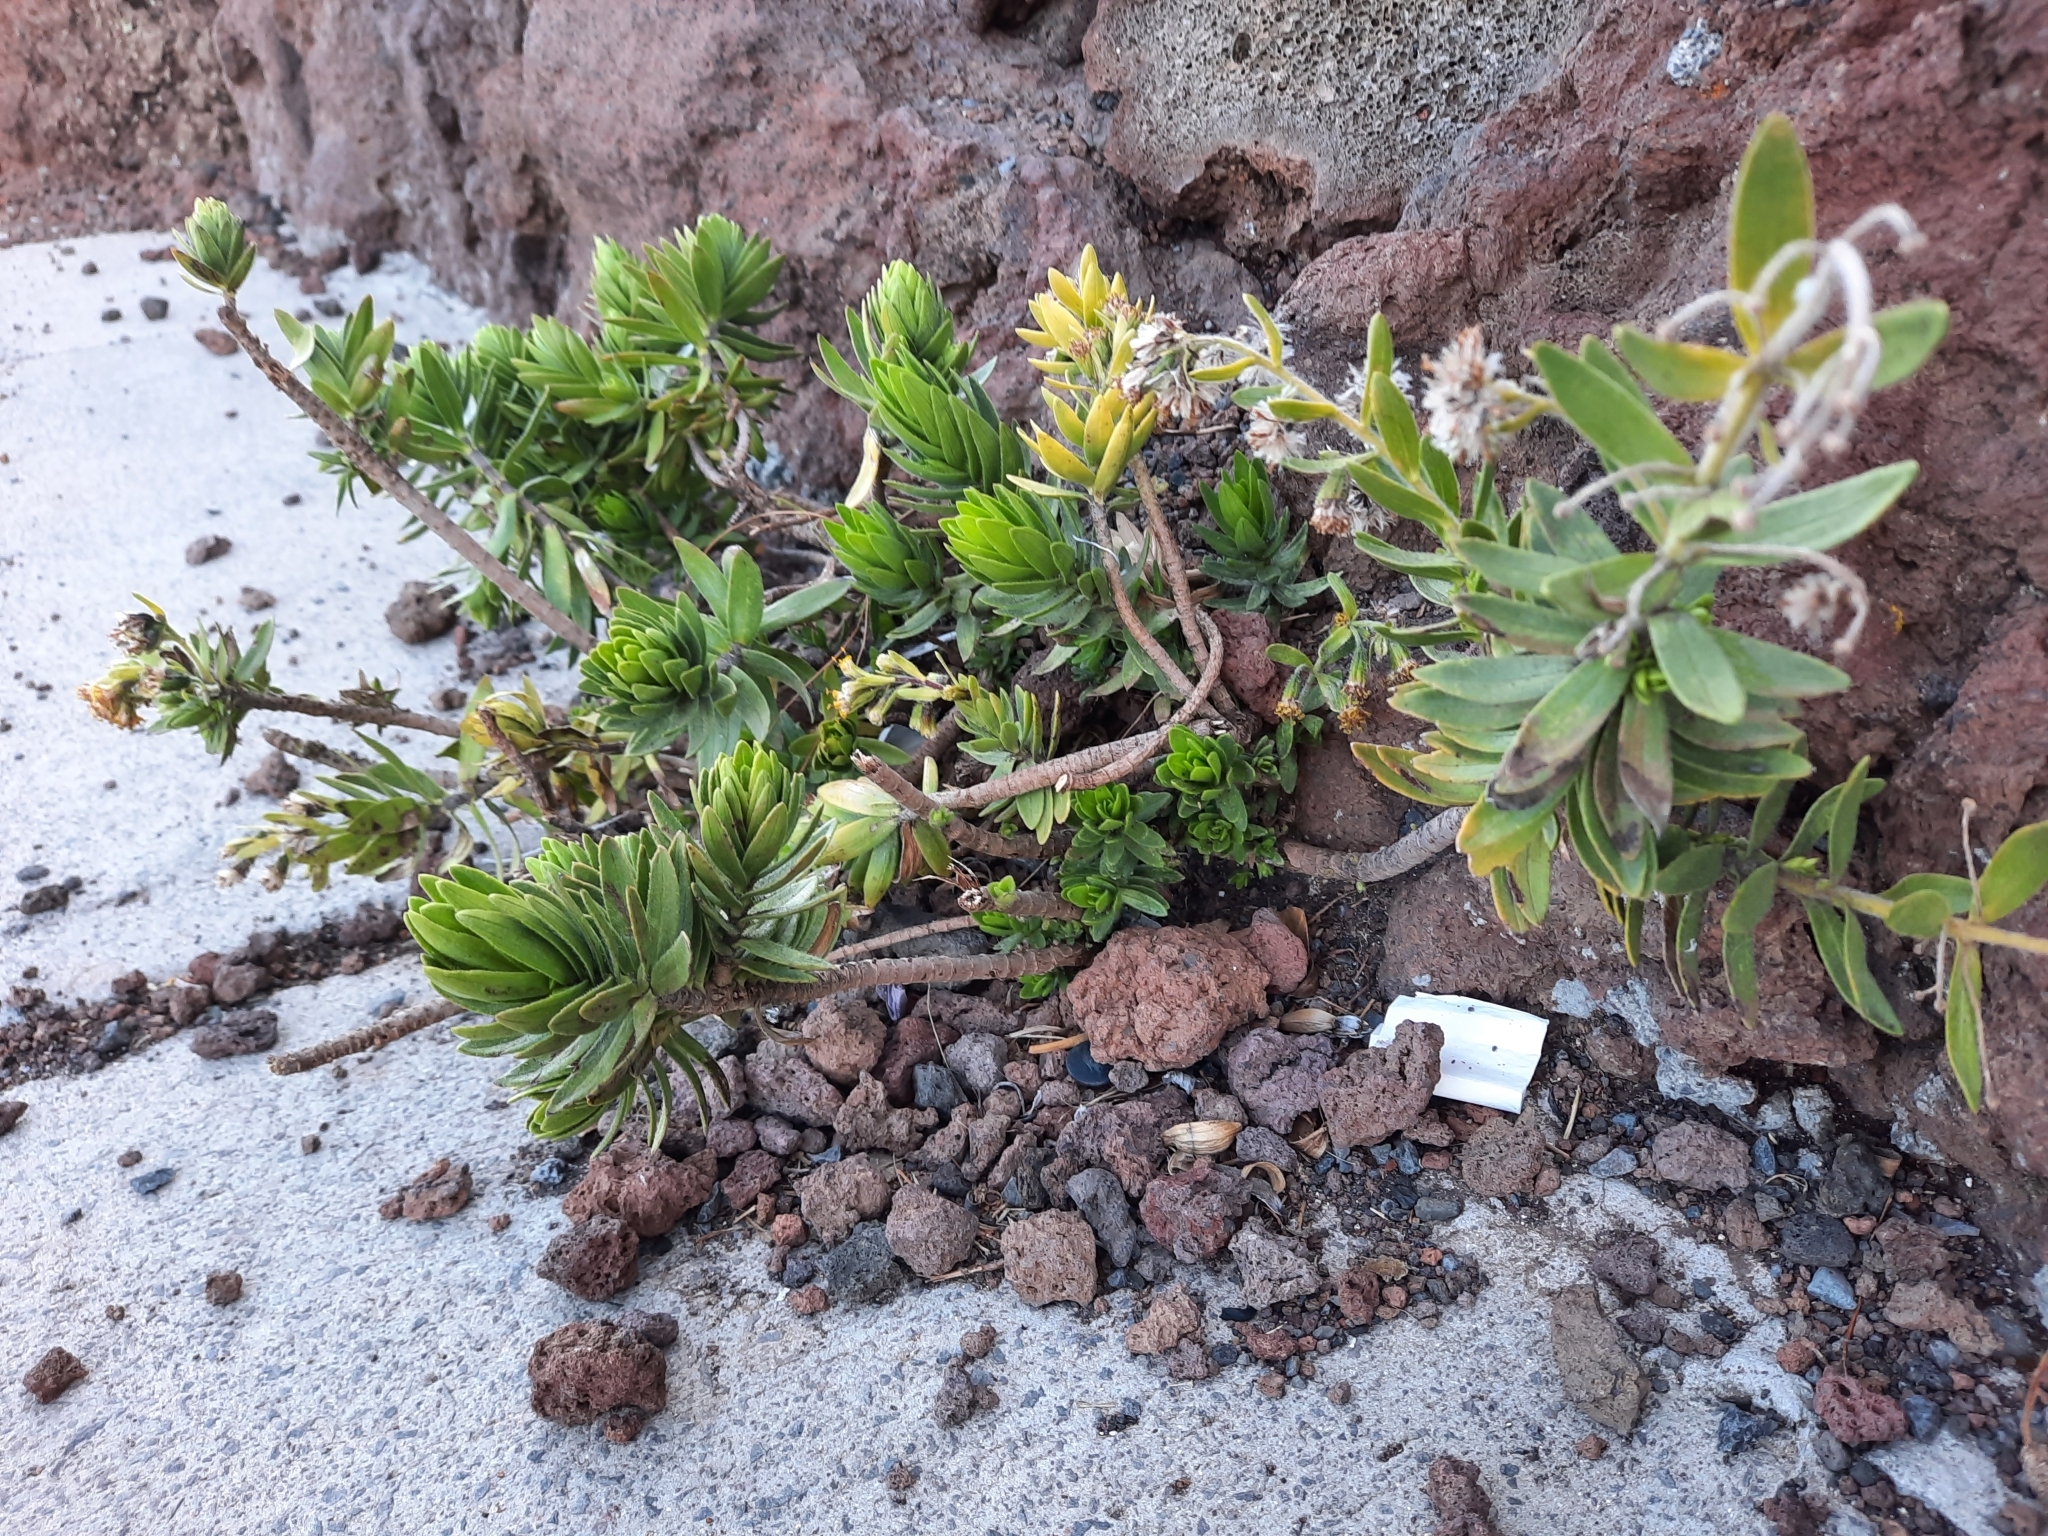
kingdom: Plantae
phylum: Tracheophyta
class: Magnoliopsida
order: Asterales
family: Asteraceae
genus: Dubautia
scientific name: Dubautia menziesii
